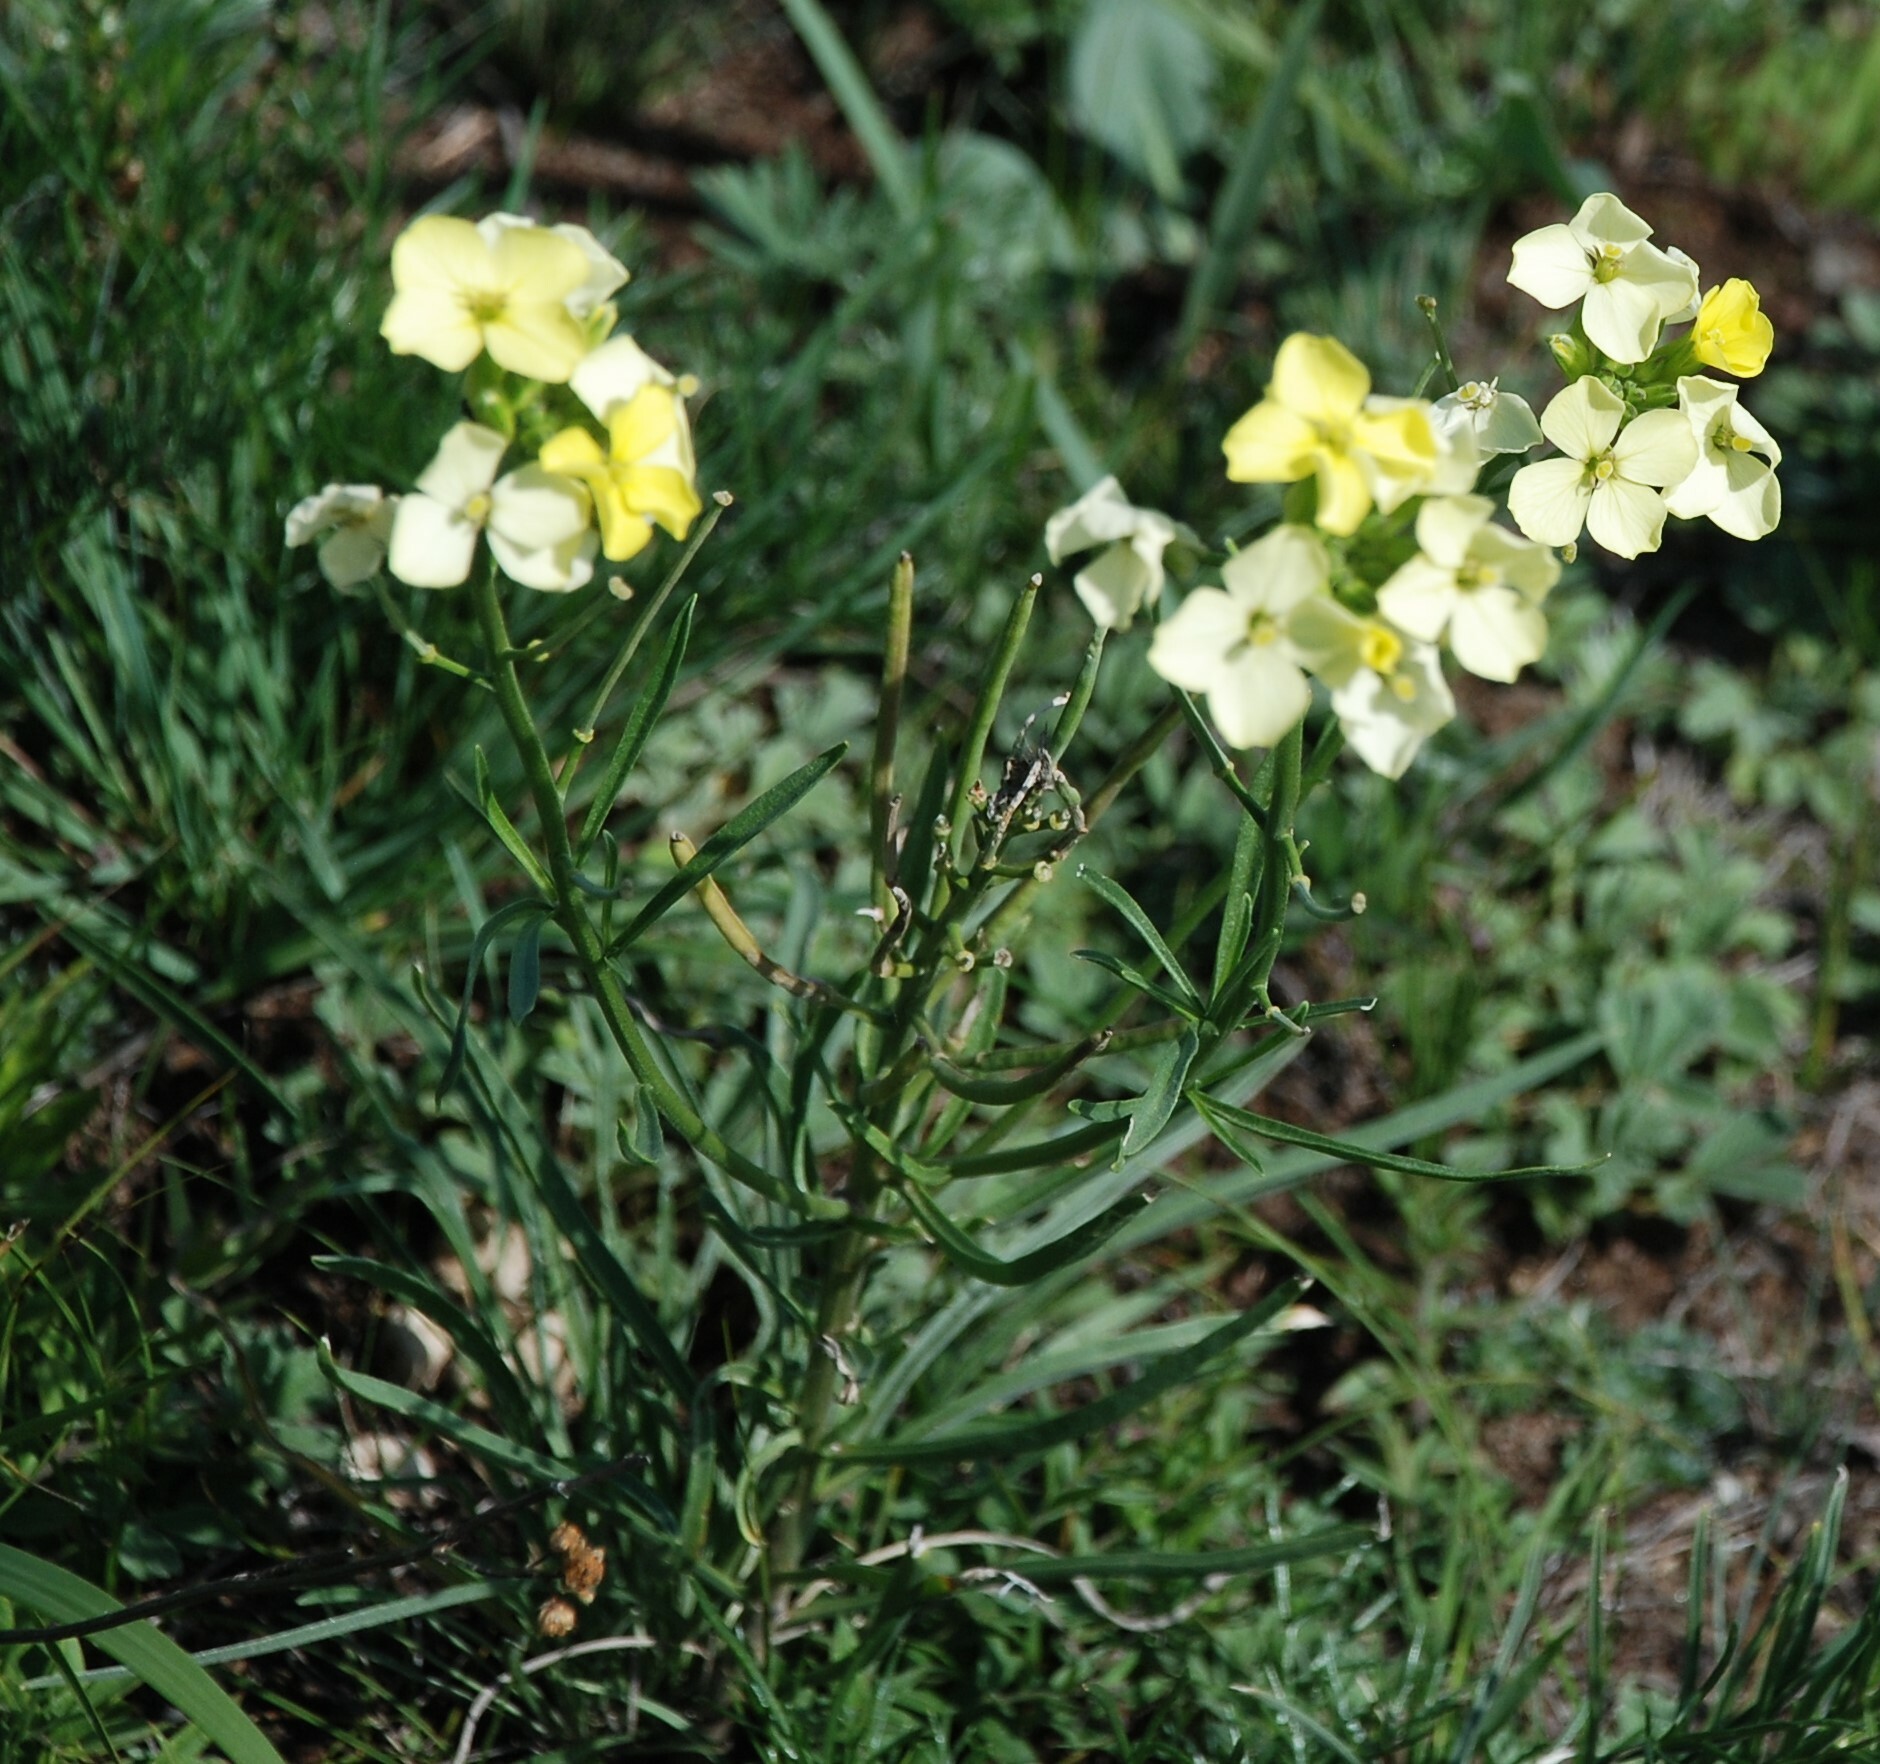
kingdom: Plantae
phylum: Tracheophyta
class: Magnoliopsida
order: Brassicales
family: Brassicaceae
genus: Erysimum
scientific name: Erysimum flavum
